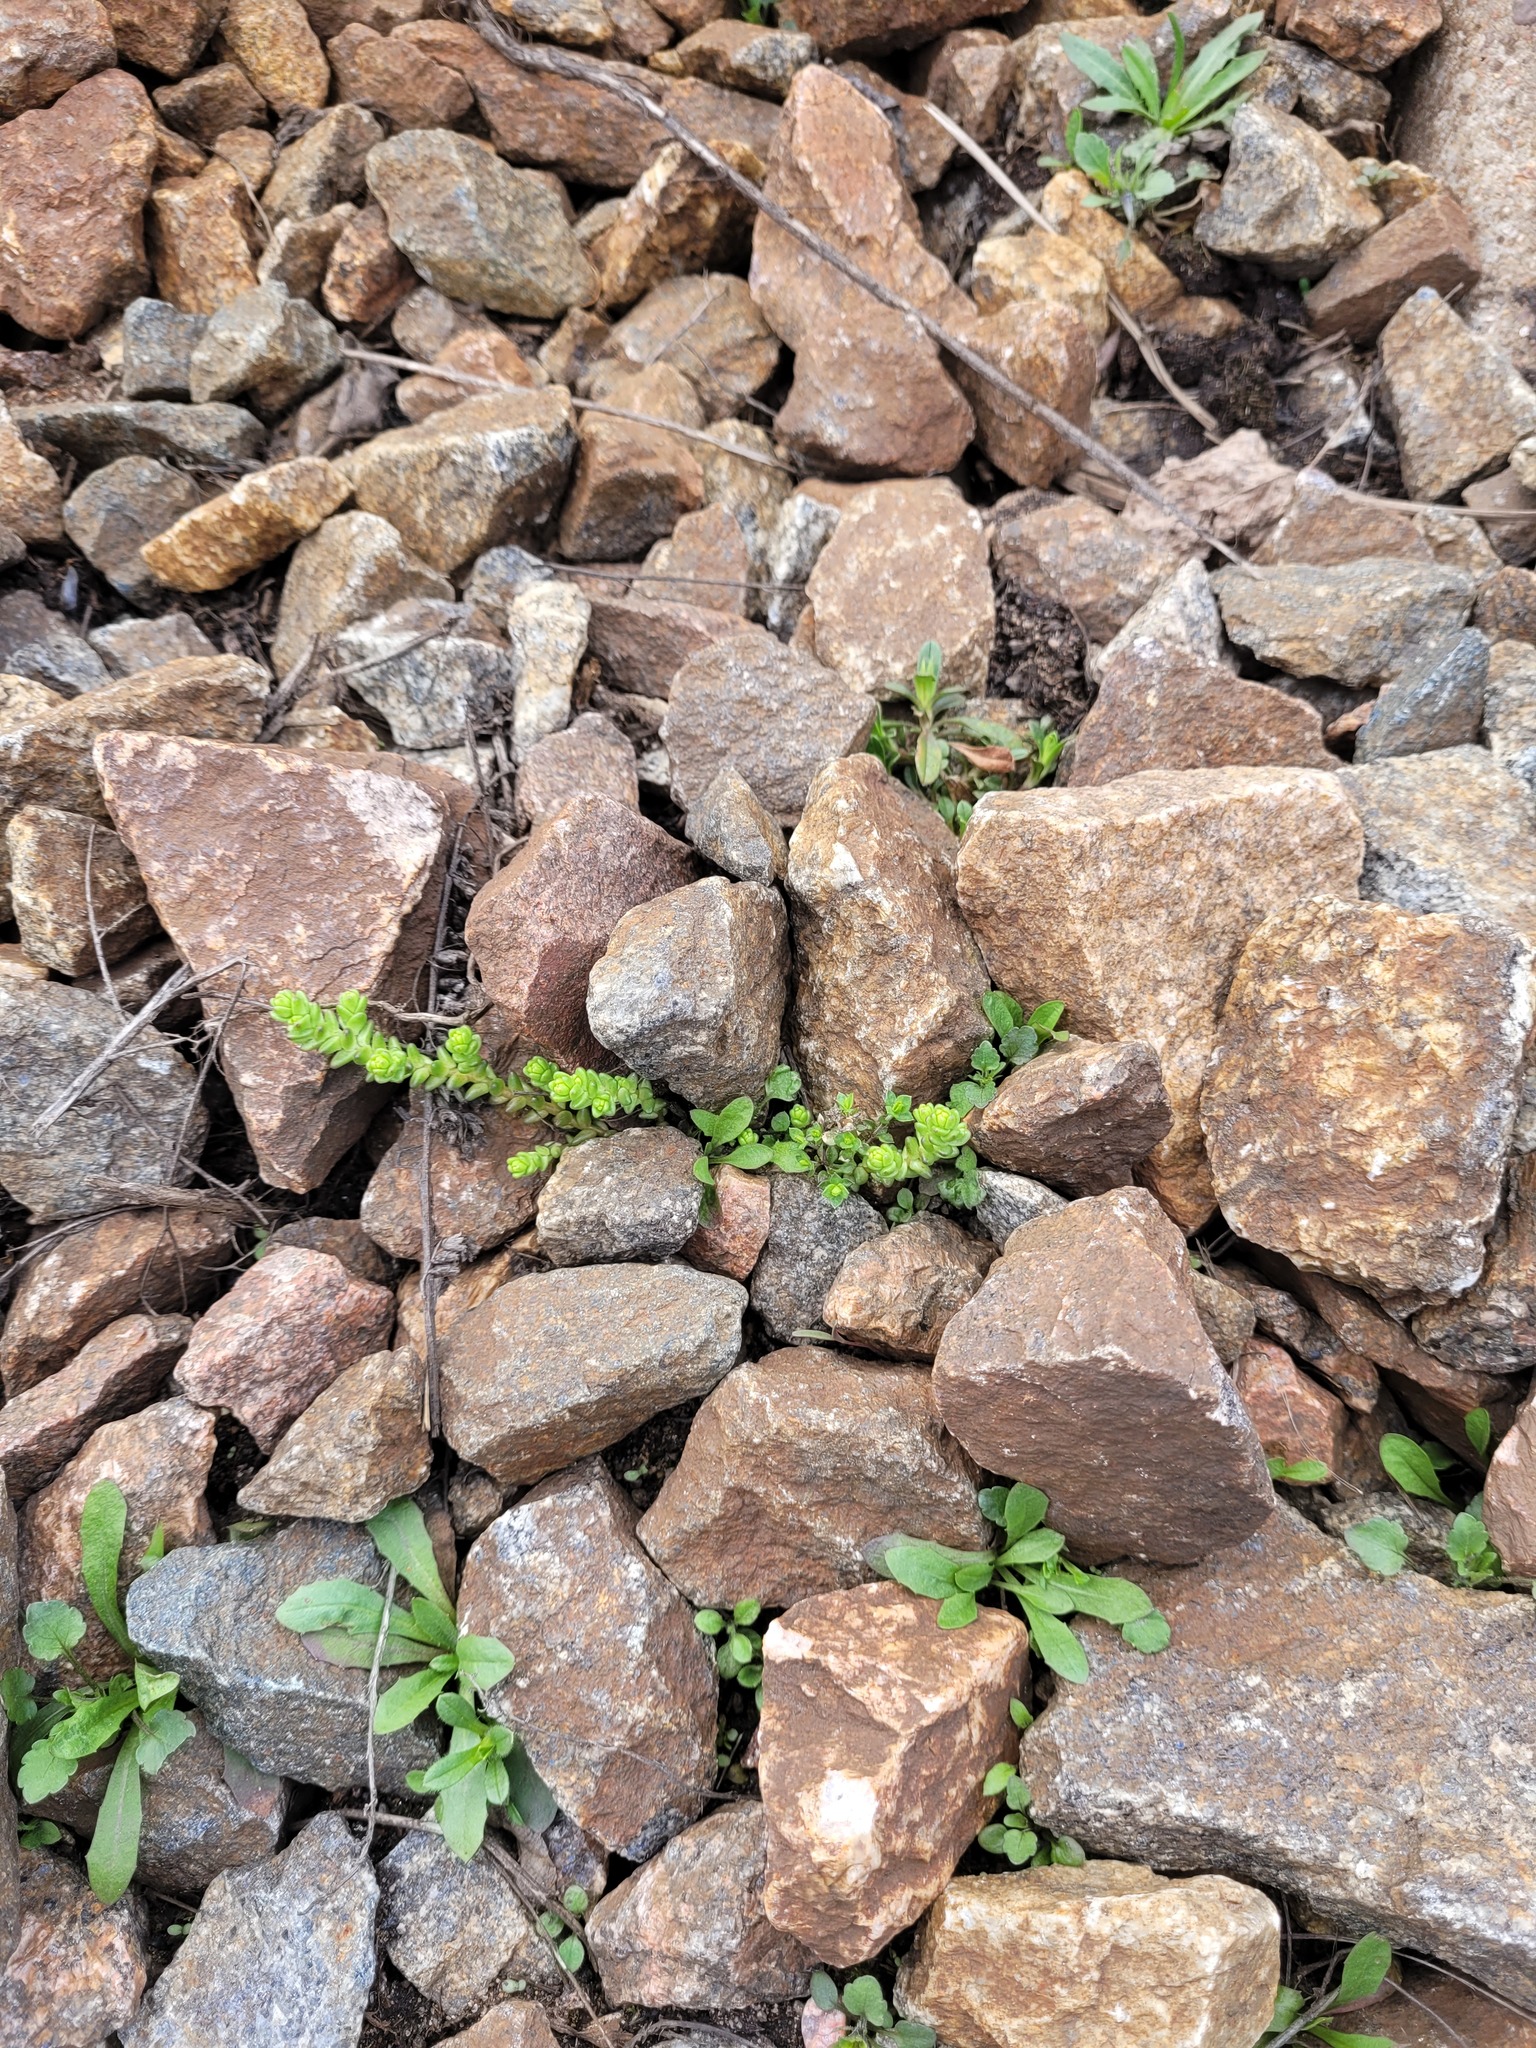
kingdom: Plantae
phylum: Tracheophyta
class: Magnoliopsida
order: Saxifragales
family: Crassulaceae
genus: Sedum
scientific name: Sedum acre
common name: Biting stonecrop
